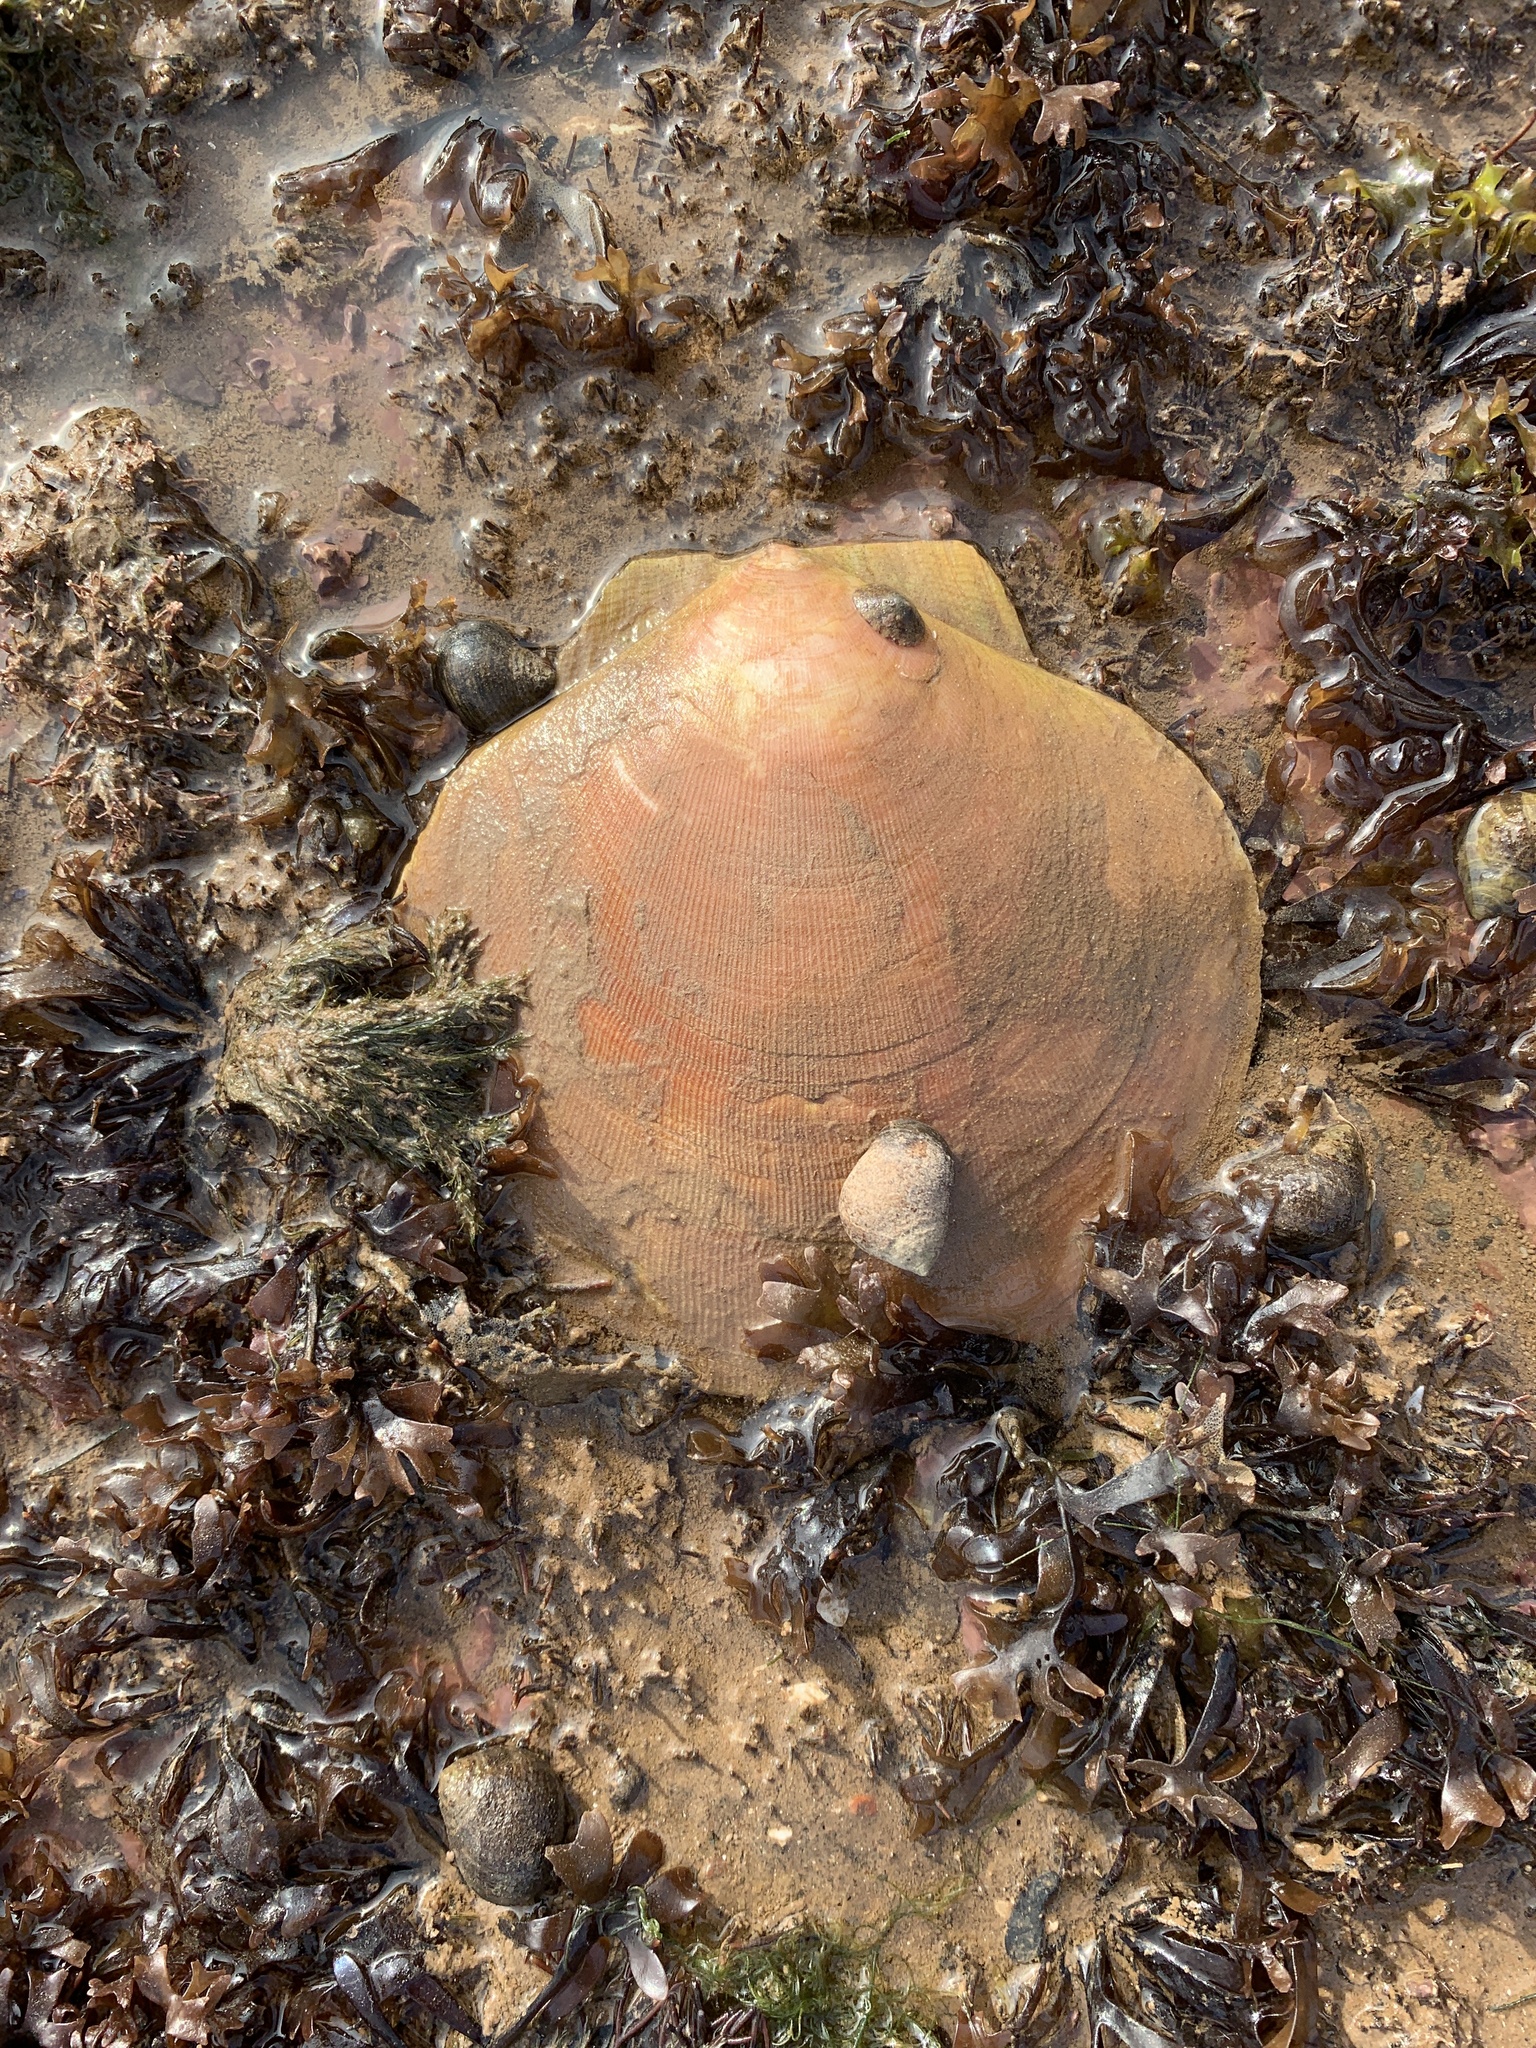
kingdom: Animalia
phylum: Mollusca
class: Bivalvia
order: Pectinida
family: Pectinidae
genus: Placopecten
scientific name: Placopecten magellanicus
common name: American sea scallop
